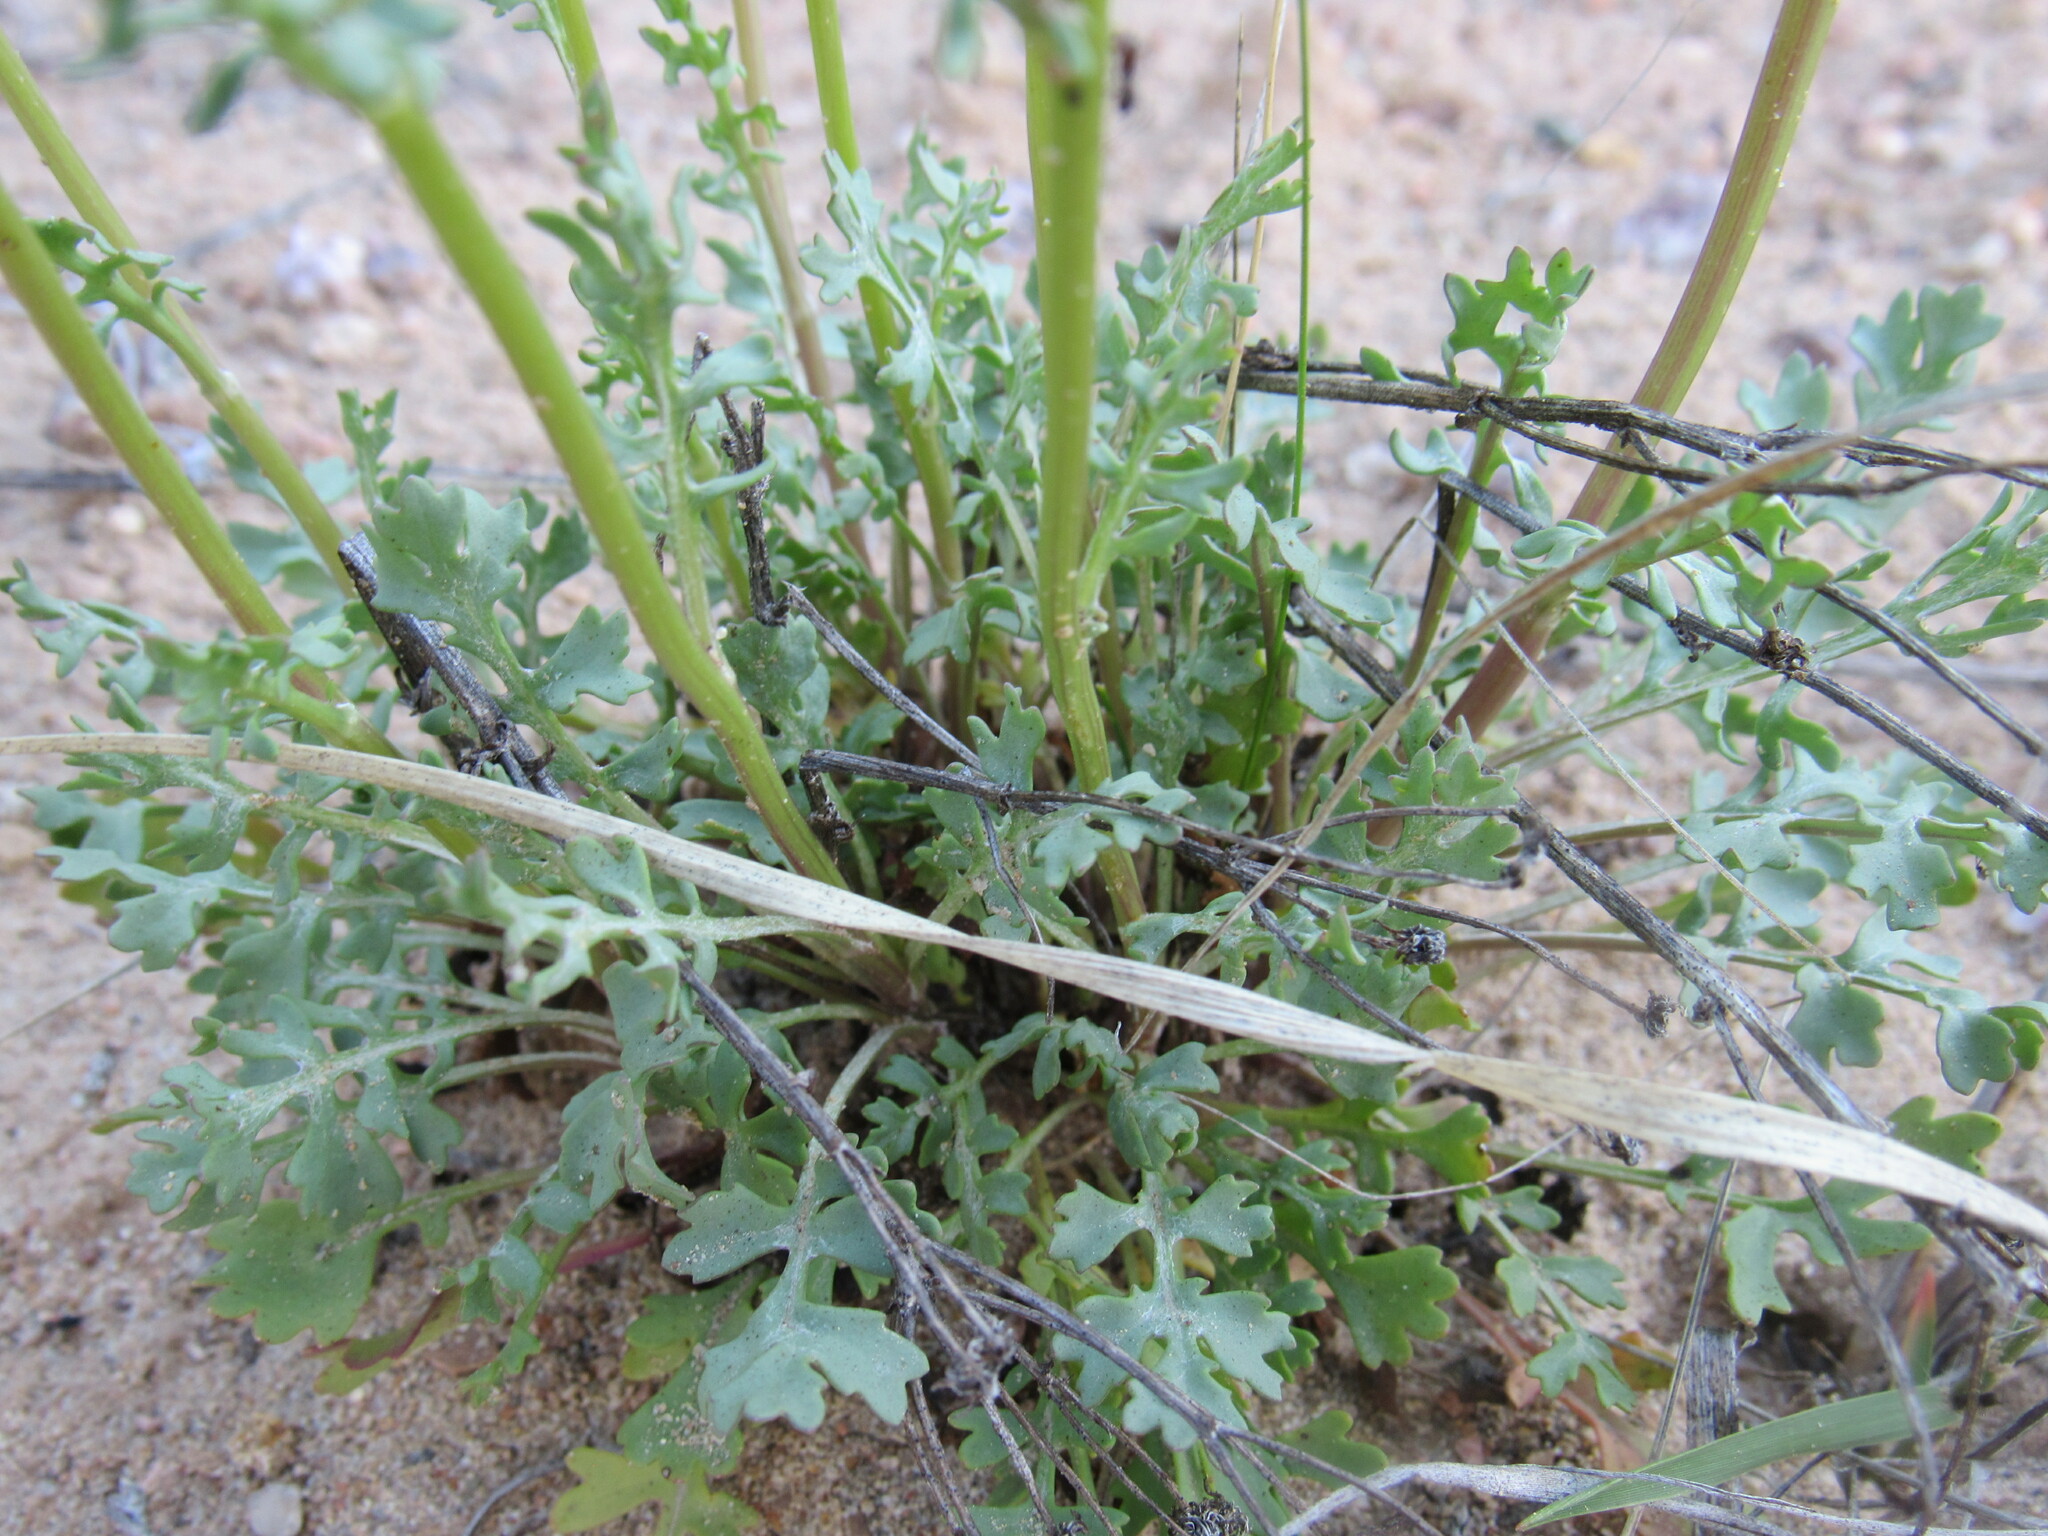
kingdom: Plantae
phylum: Tracheophyta
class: Magnoliopsida
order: Asterales
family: Asteraceae
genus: Packera
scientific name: Packera multilobata
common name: Lobe-leaf groundsel
